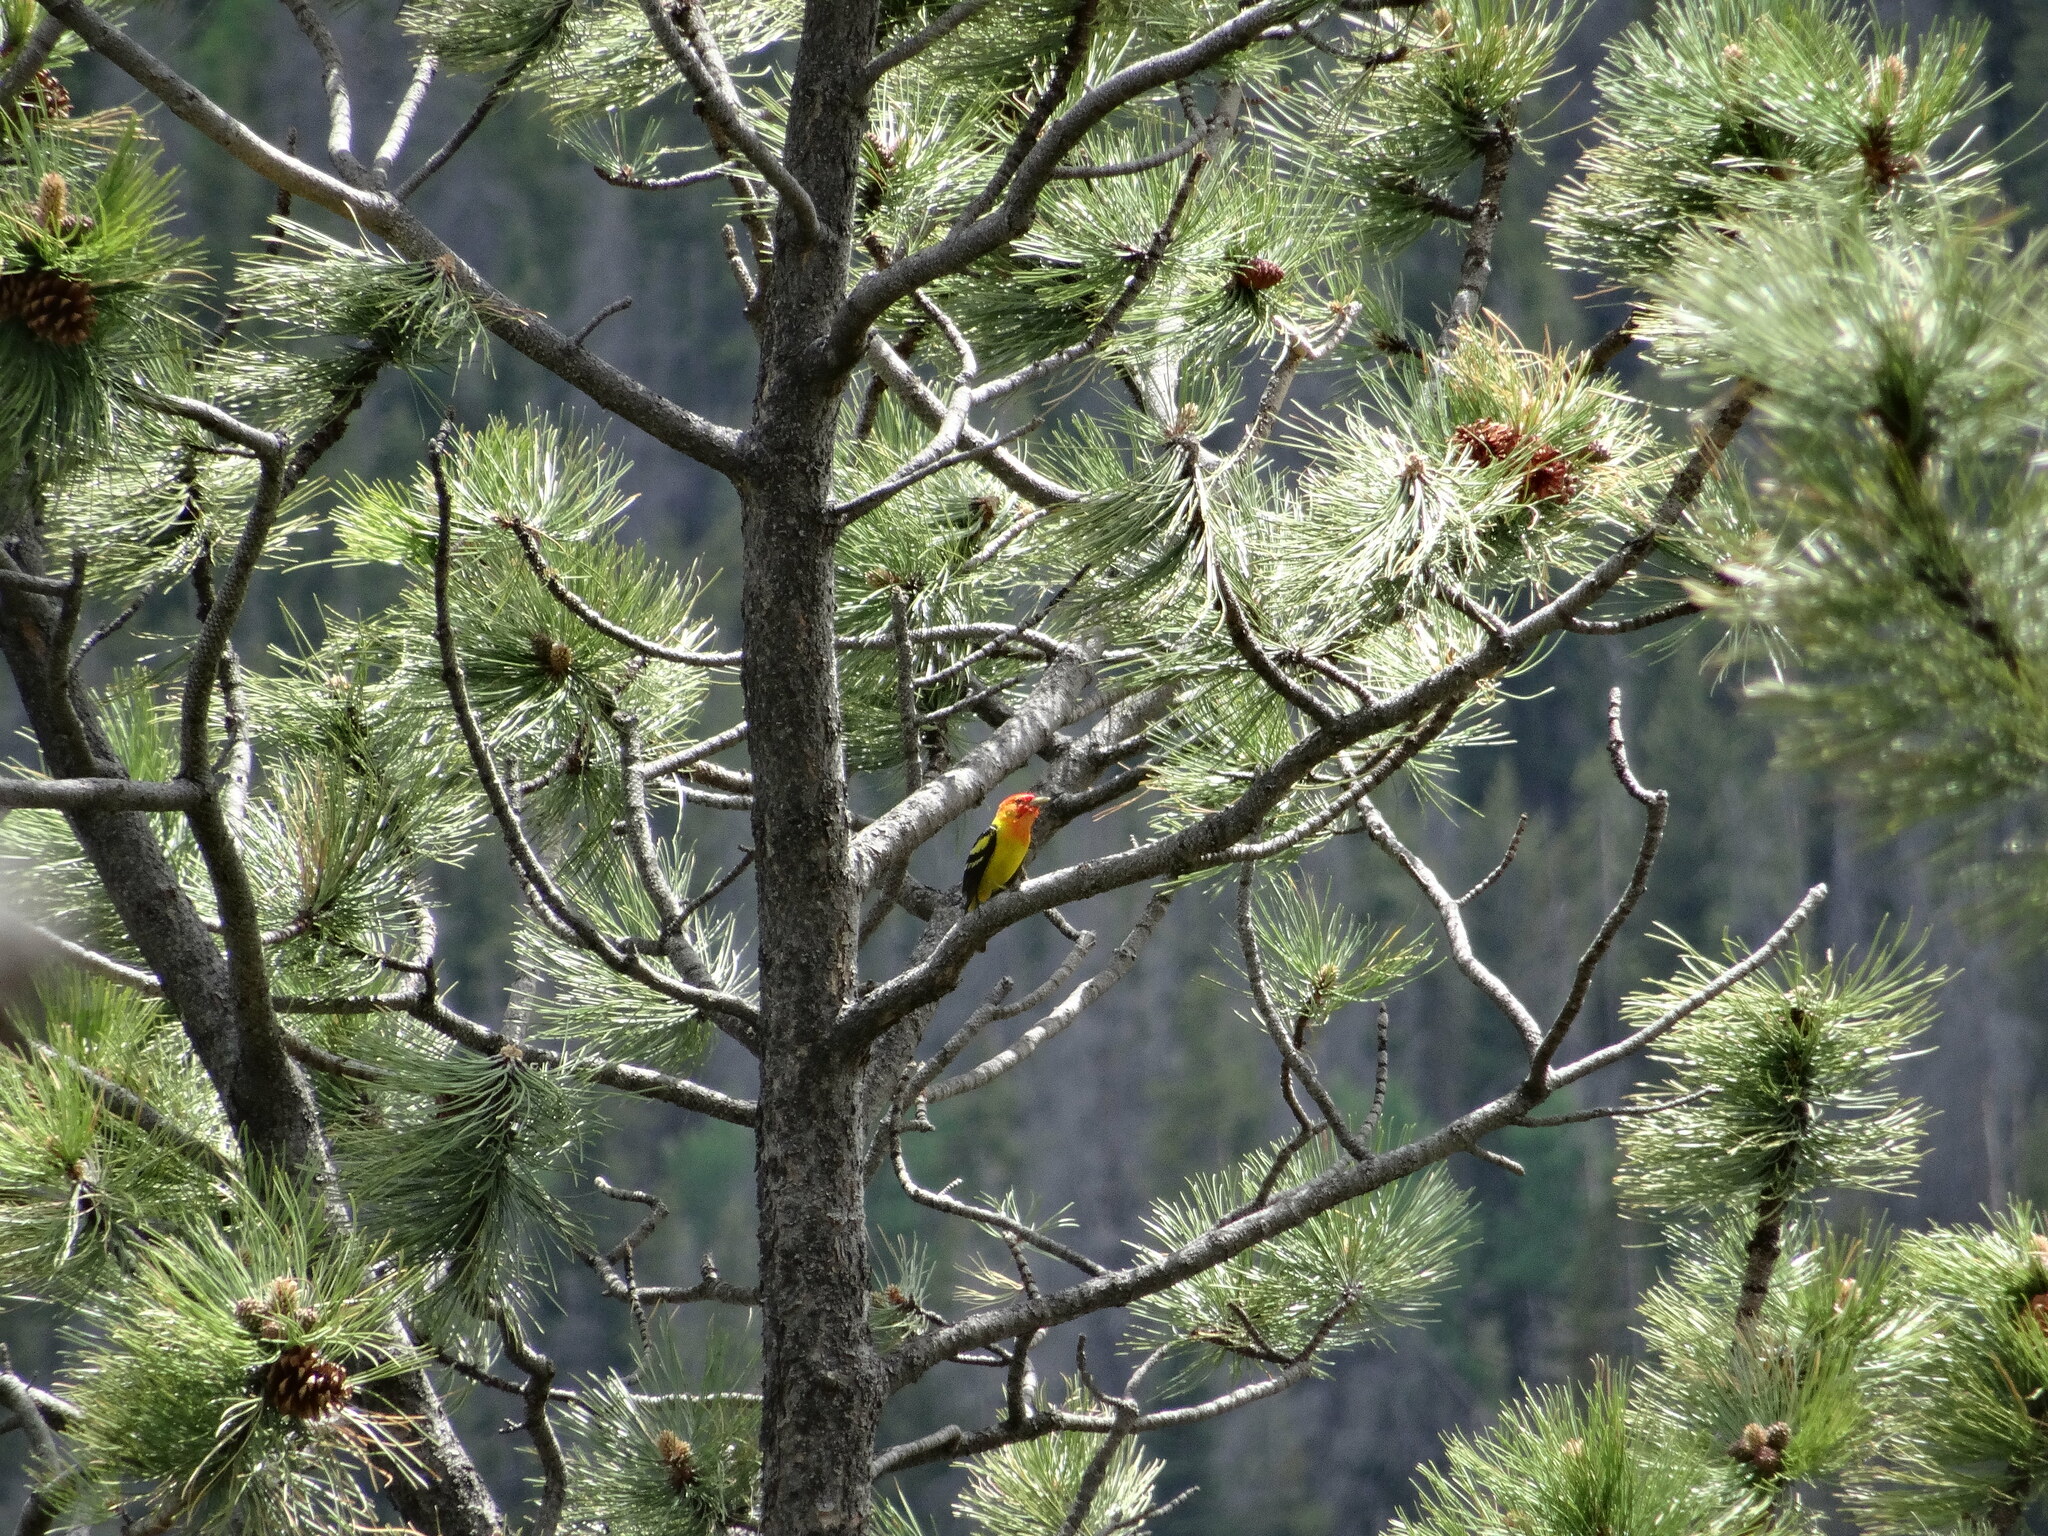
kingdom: Animalia
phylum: Chordata
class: Aves
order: Passeriformes
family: Cardinalidae
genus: Piranga
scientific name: Piranga ludoviciana
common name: Western tanager
